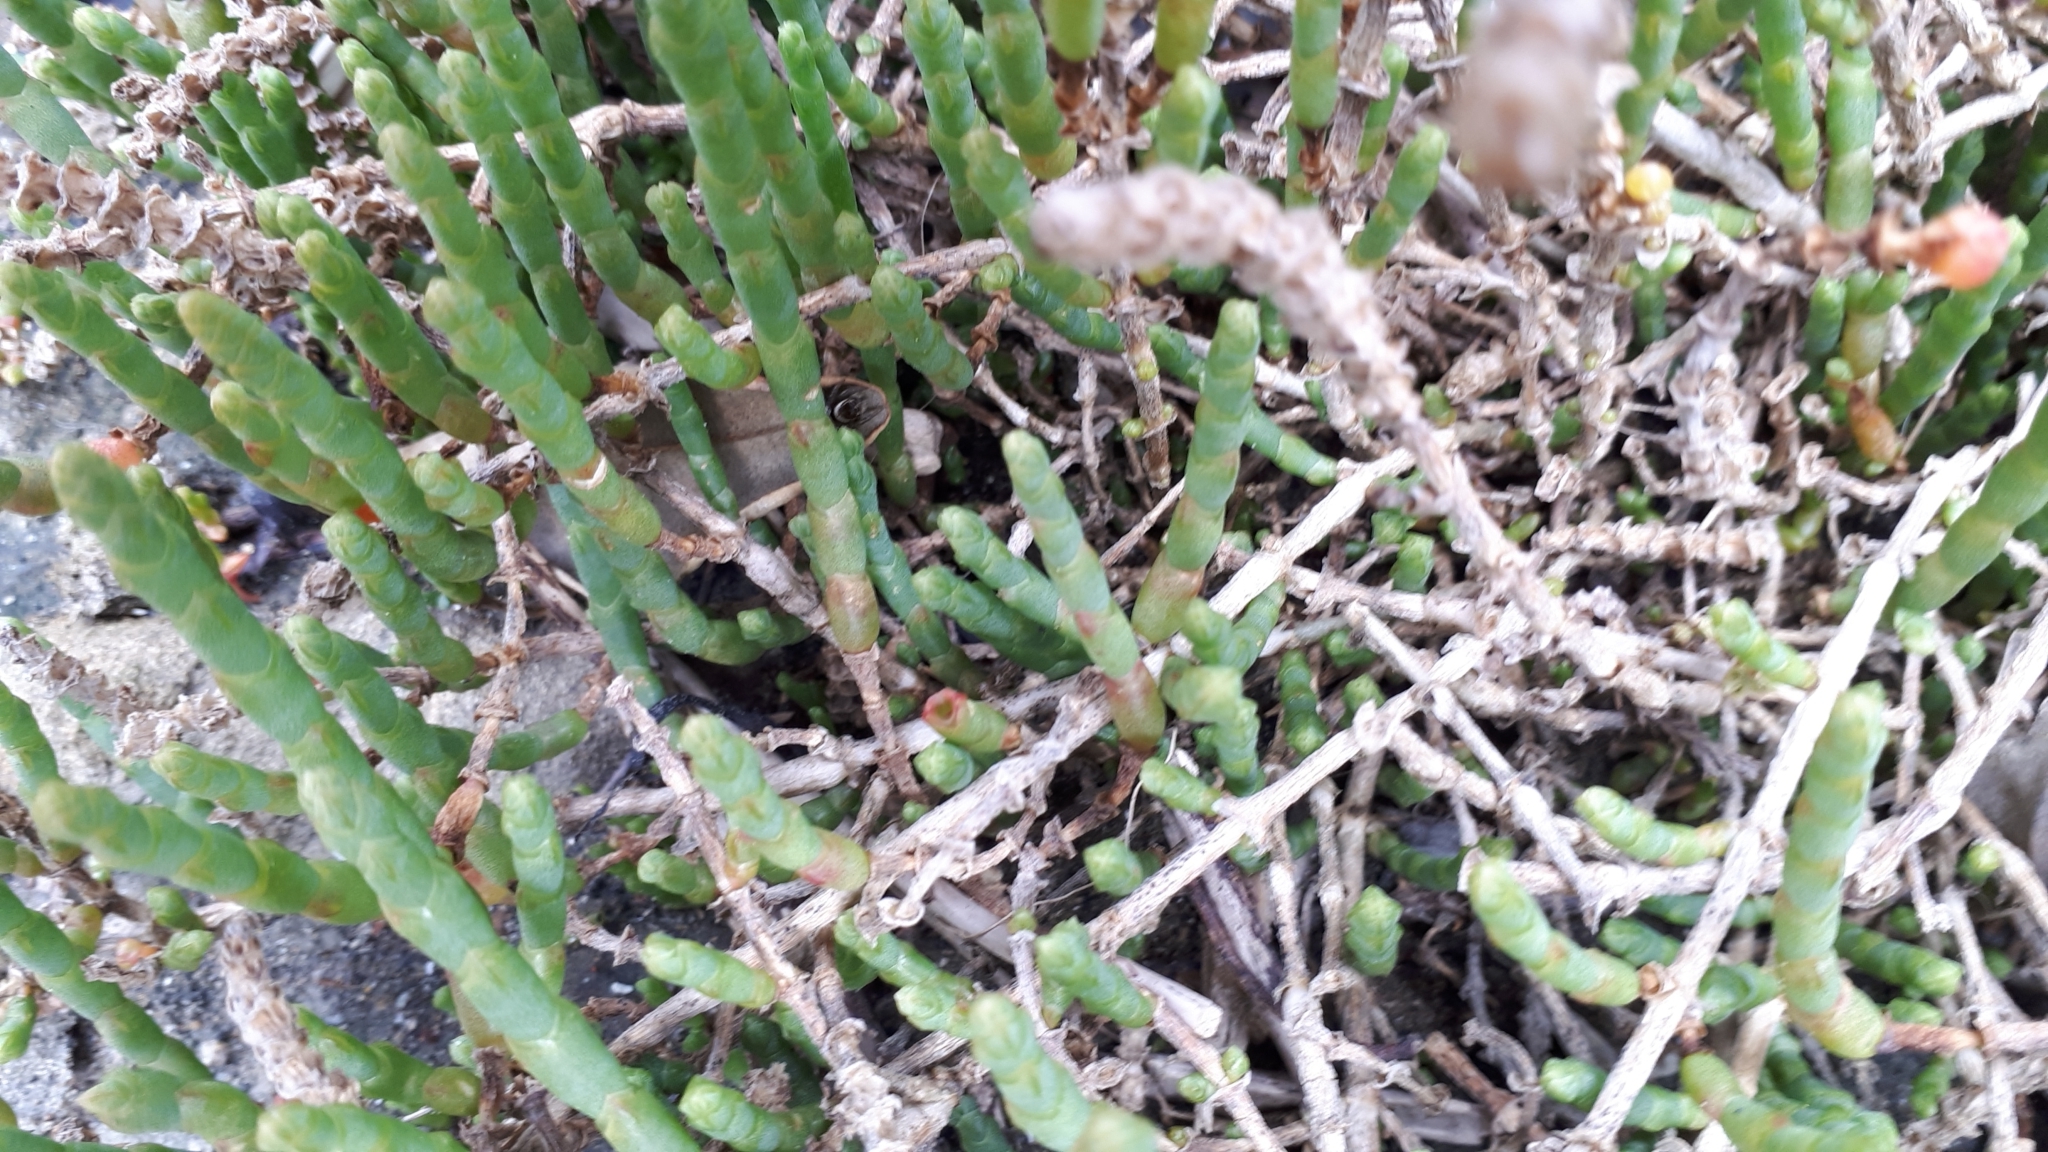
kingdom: Plantae
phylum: Tracheophyta
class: Magnoliopsida
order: Caryophyllales
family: Amaranthaceae
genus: Salicornia
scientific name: Salicornia quinqueflora
